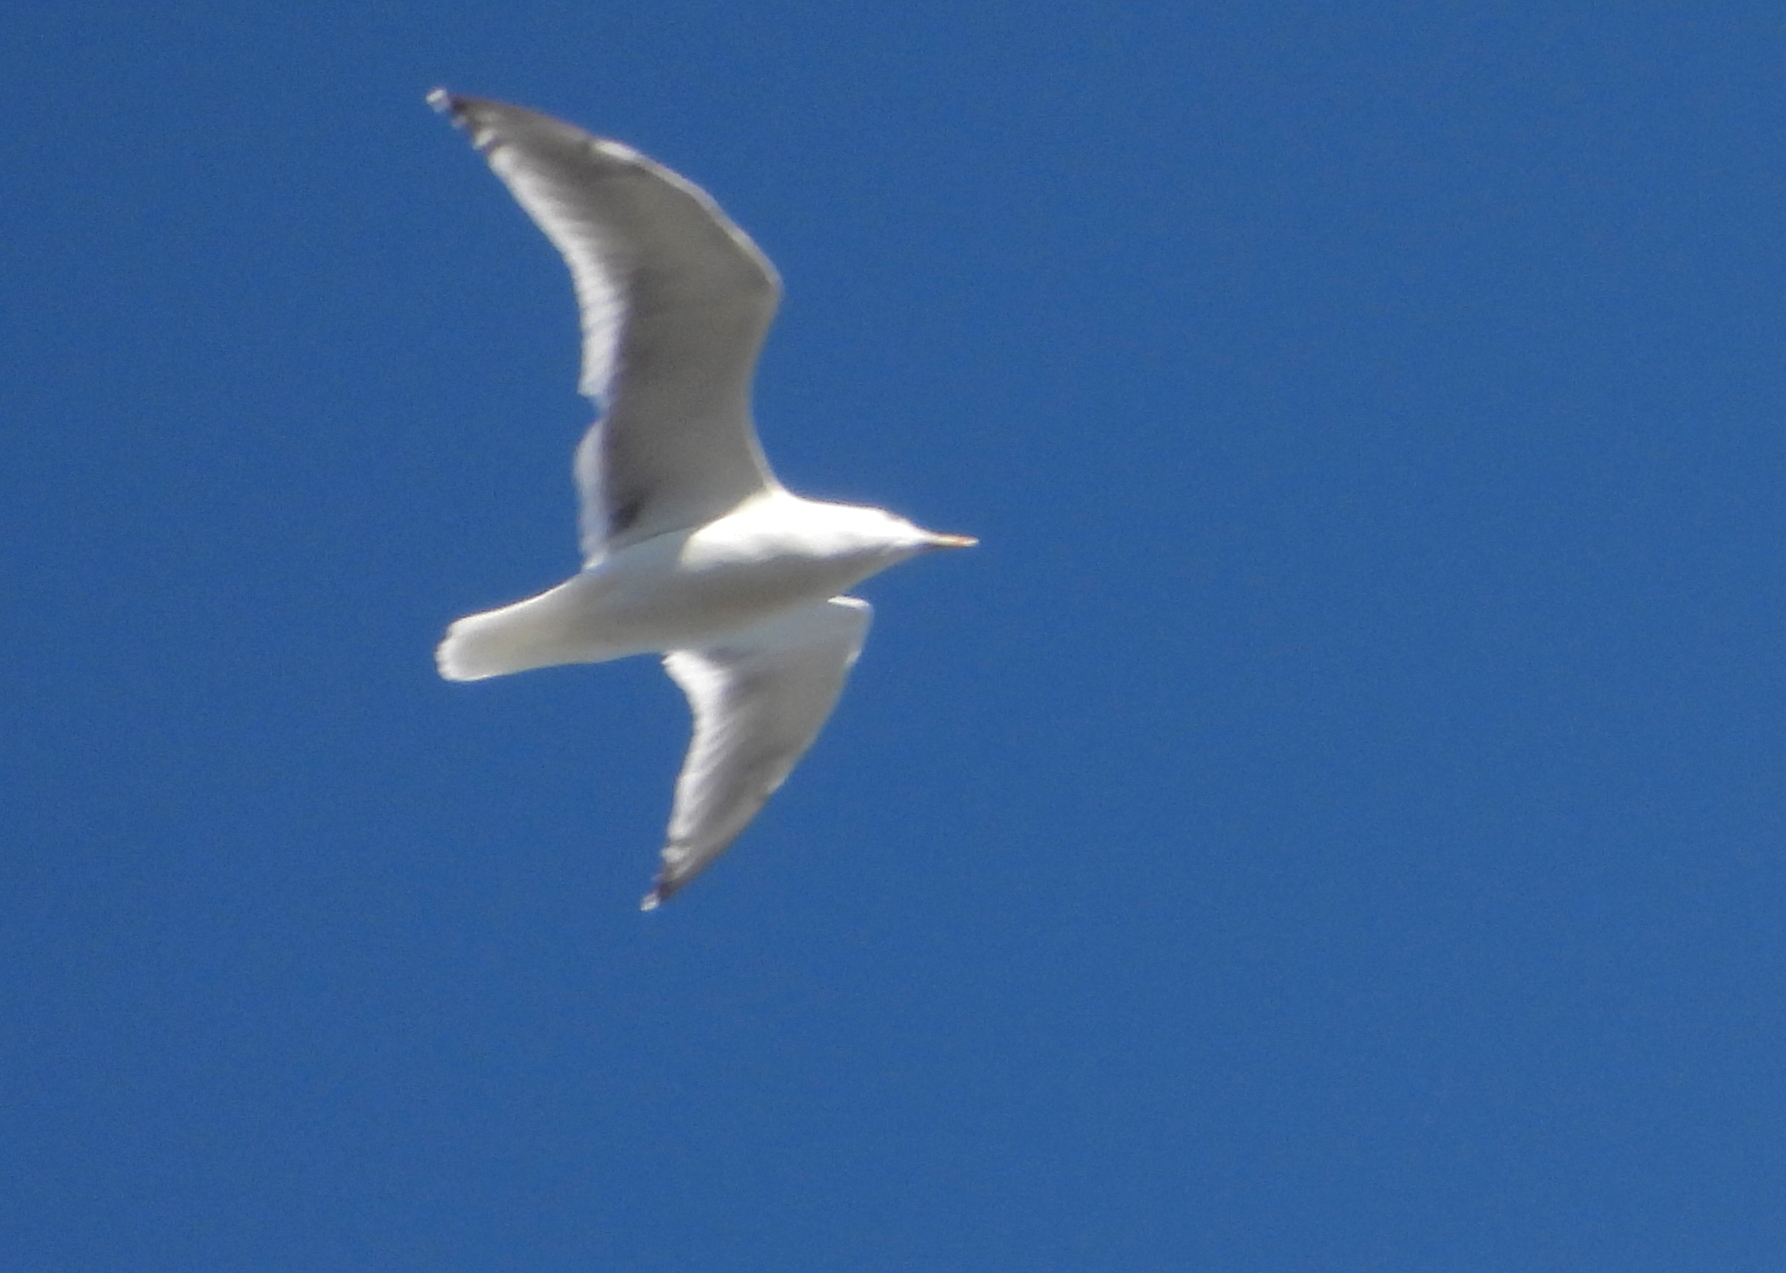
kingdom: Animalia
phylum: Chordata
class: Aves
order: Charadriiformes
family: Laridae
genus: Larus
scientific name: Larus glaucoides
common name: Iceland gull
